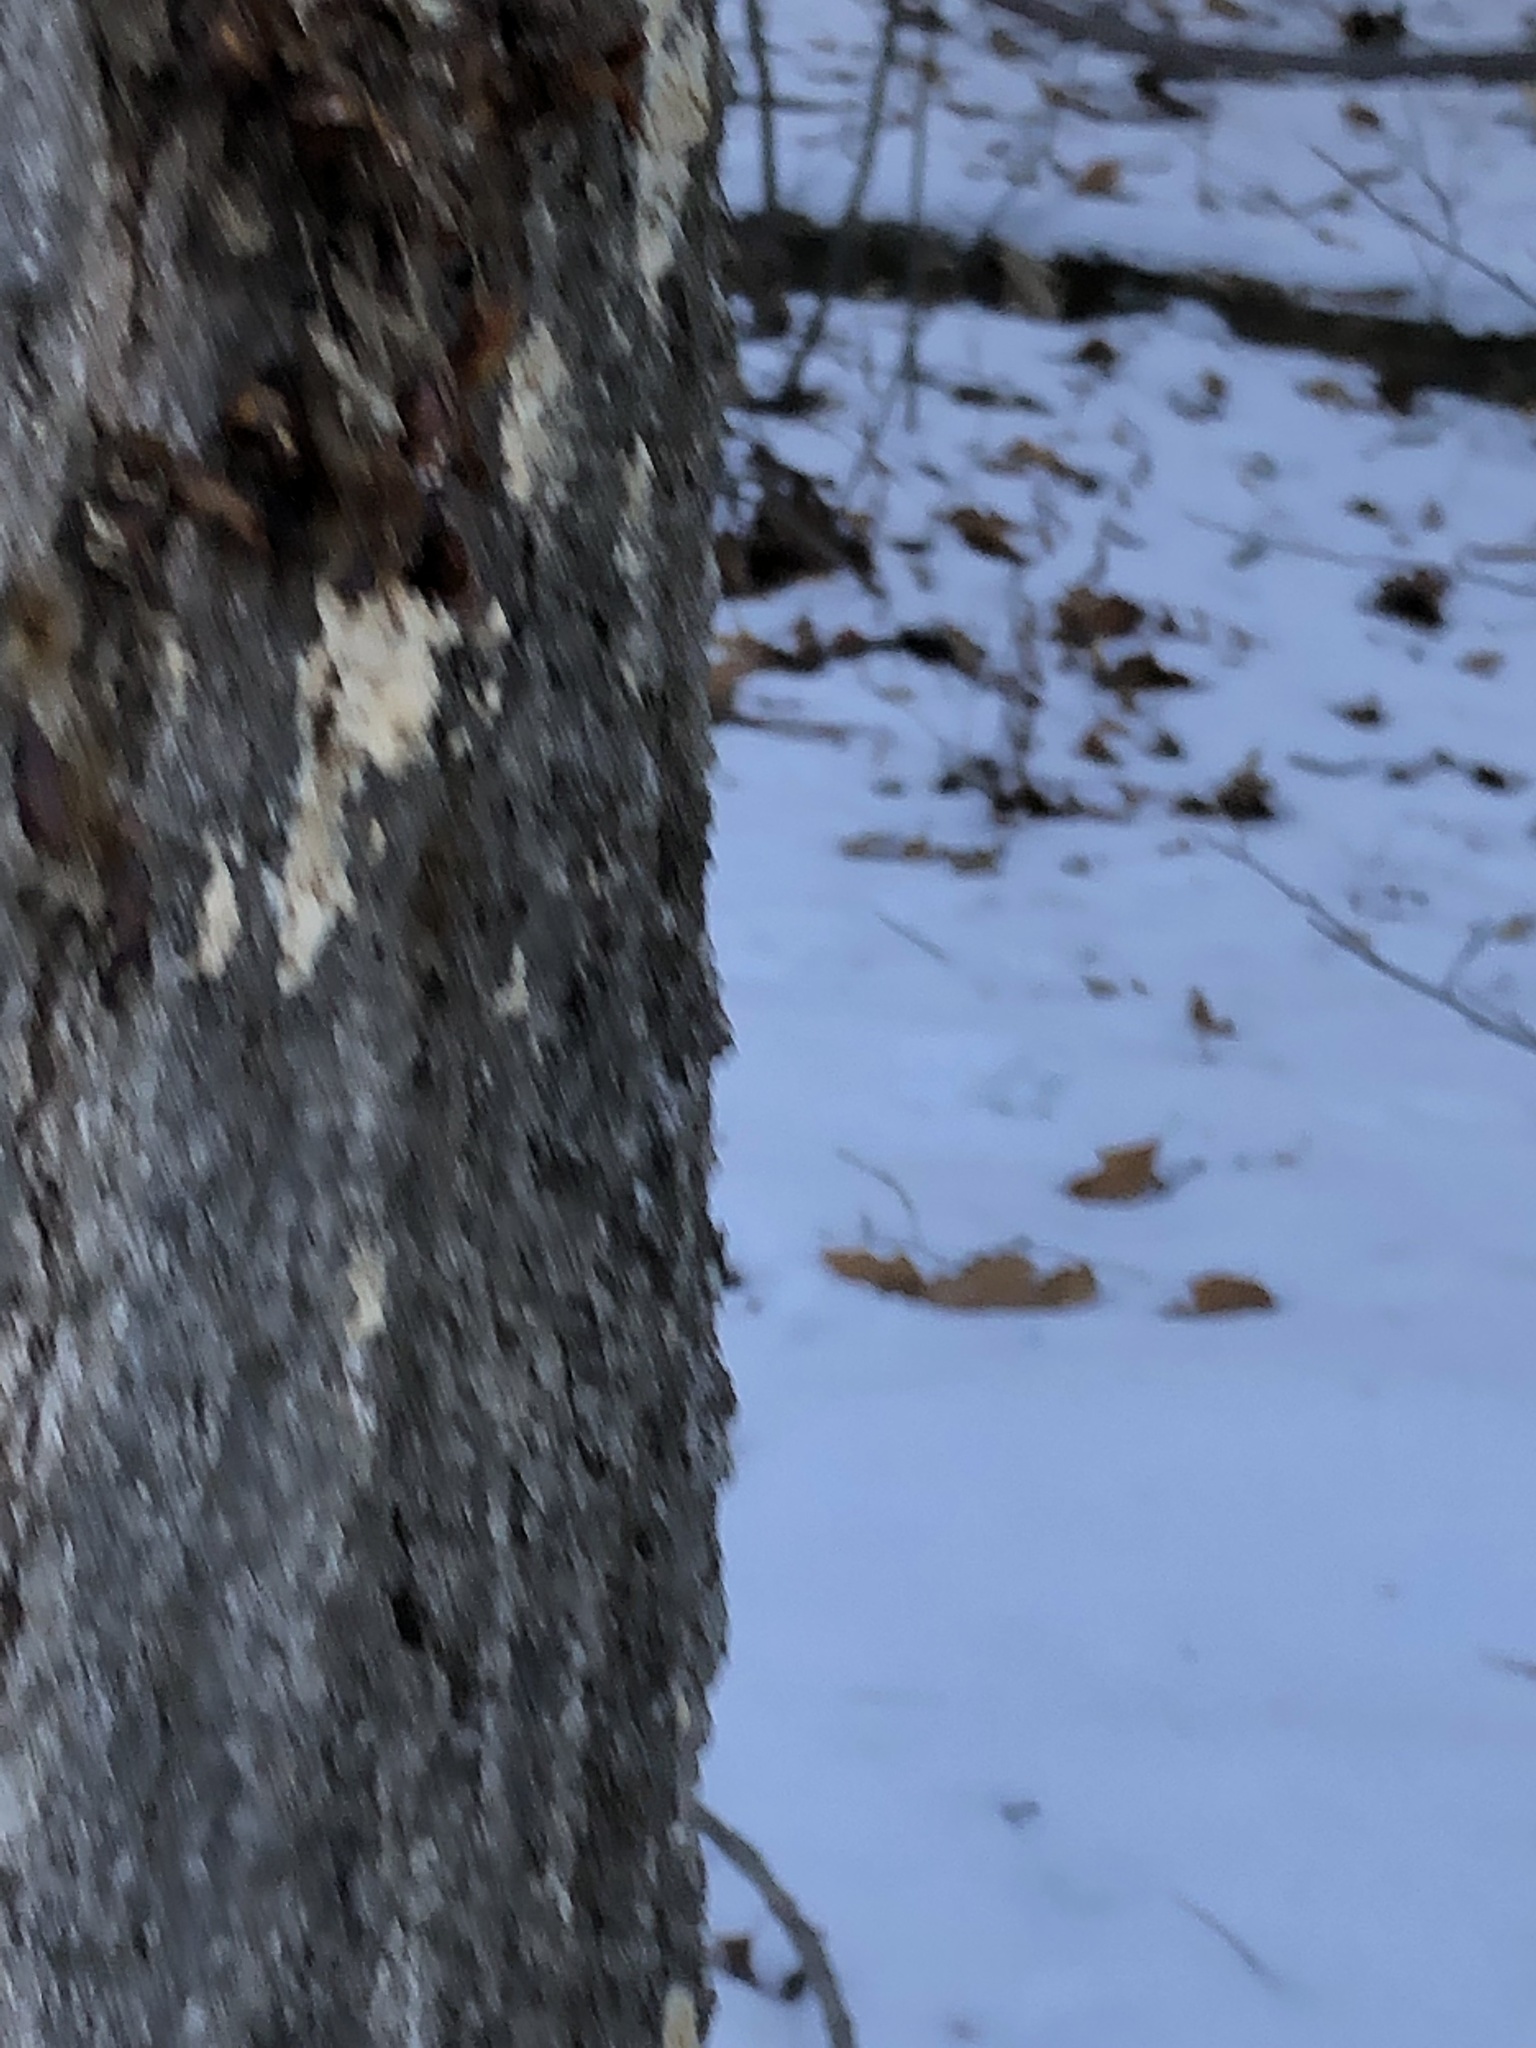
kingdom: Animalia
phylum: Arthropoda
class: Insecta
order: Lepidoptera
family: Erebidae
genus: Lymantria
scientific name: Lymantria dispar
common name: Gypsy moth
